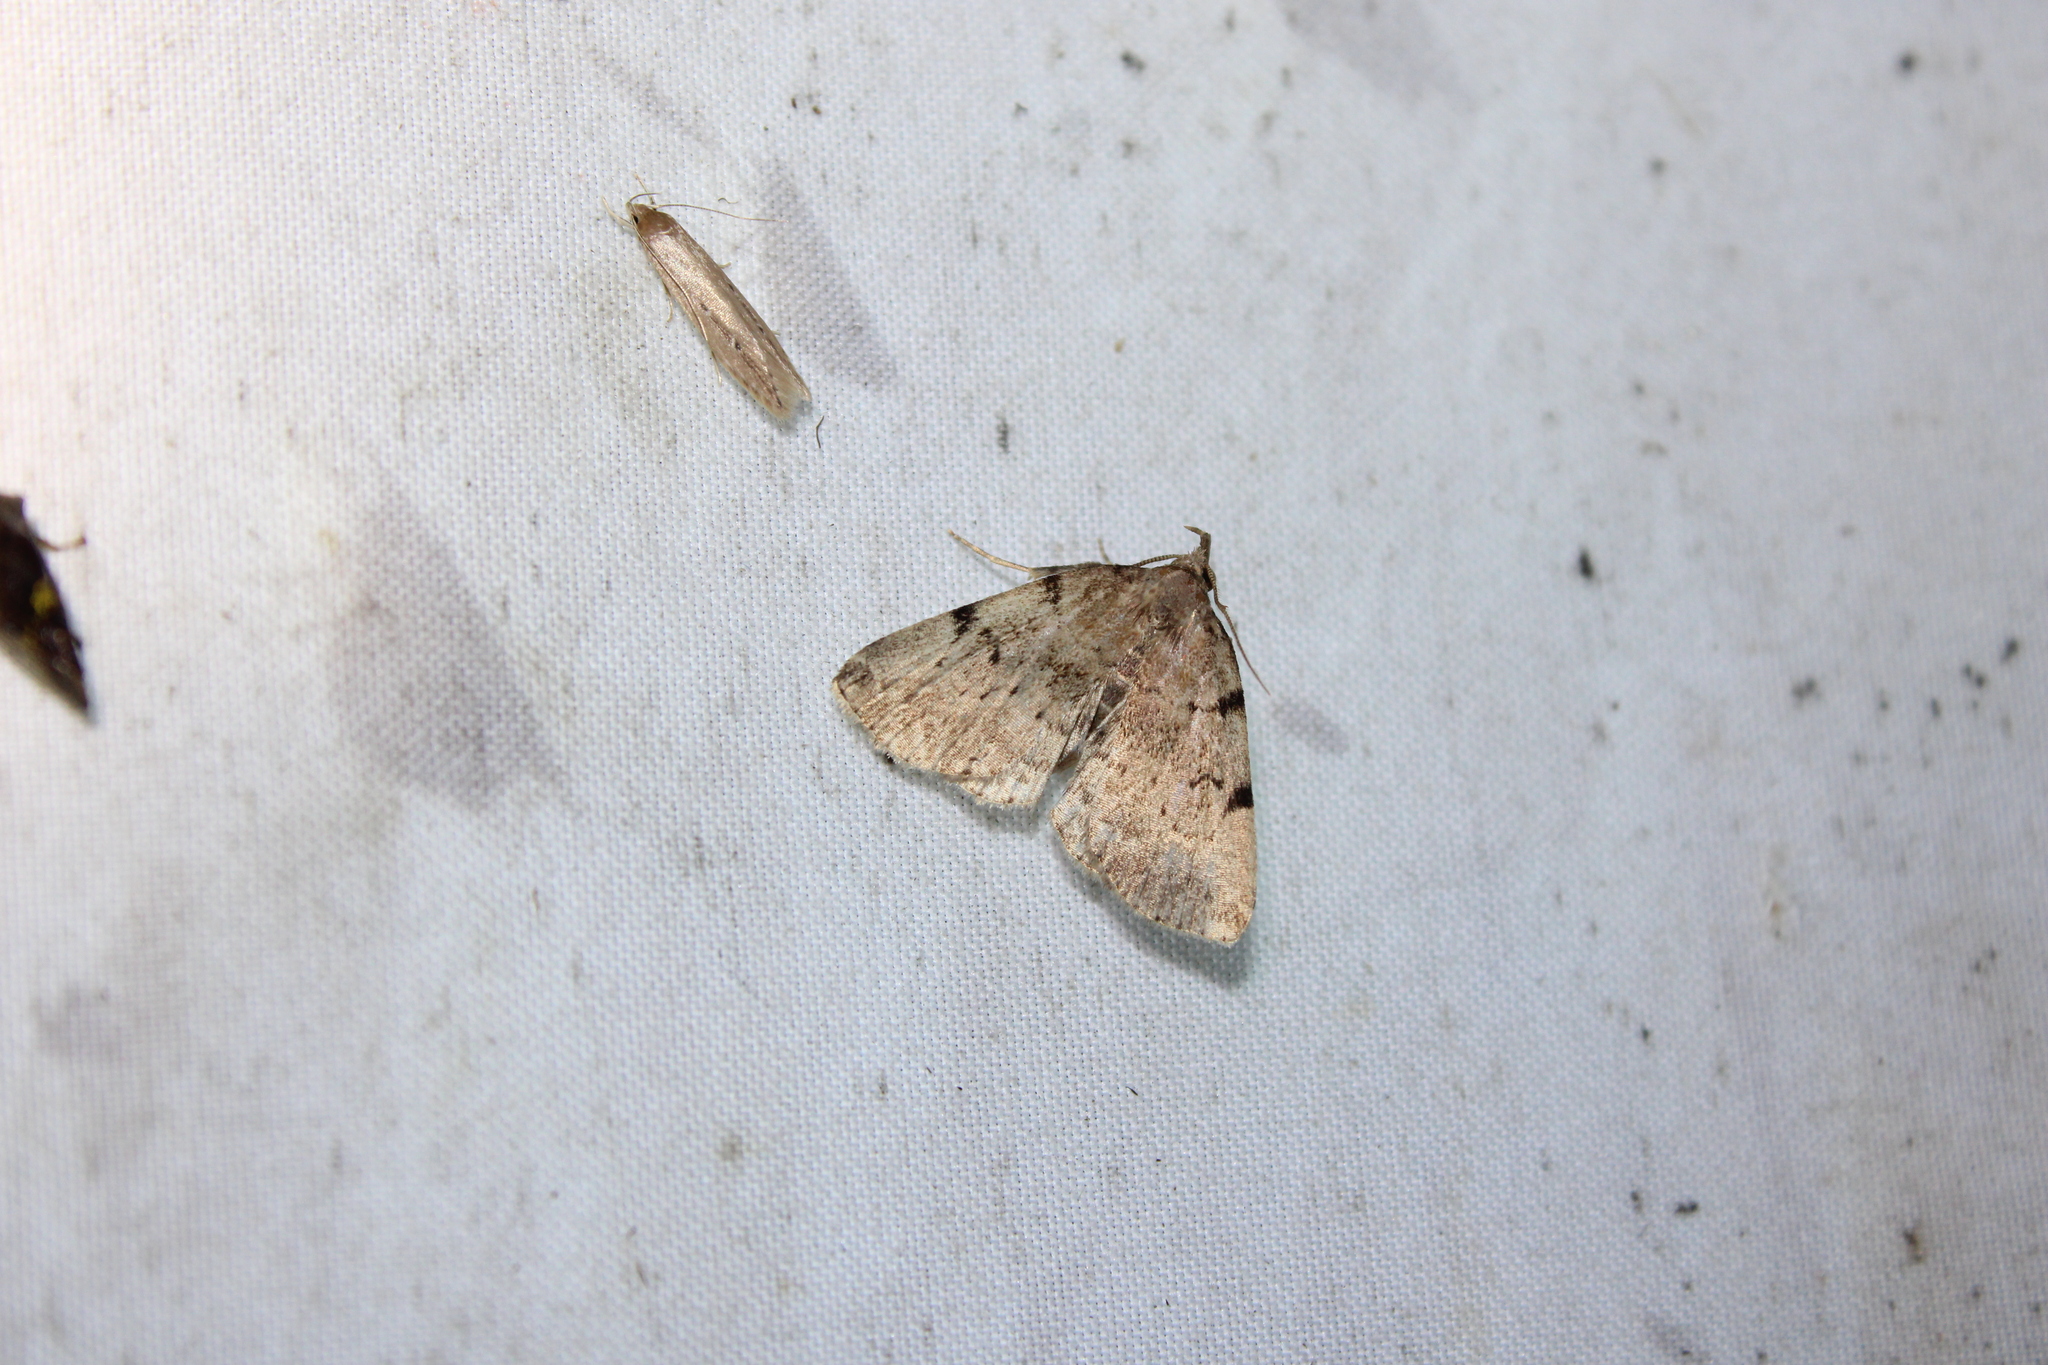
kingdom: Animalia
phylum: Arthropoda
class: Insecta
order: Lepidoptera
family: Erebidae
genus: Zanclognatha
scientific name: Zanclognatha lituralis
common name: Lettered fan-foot
